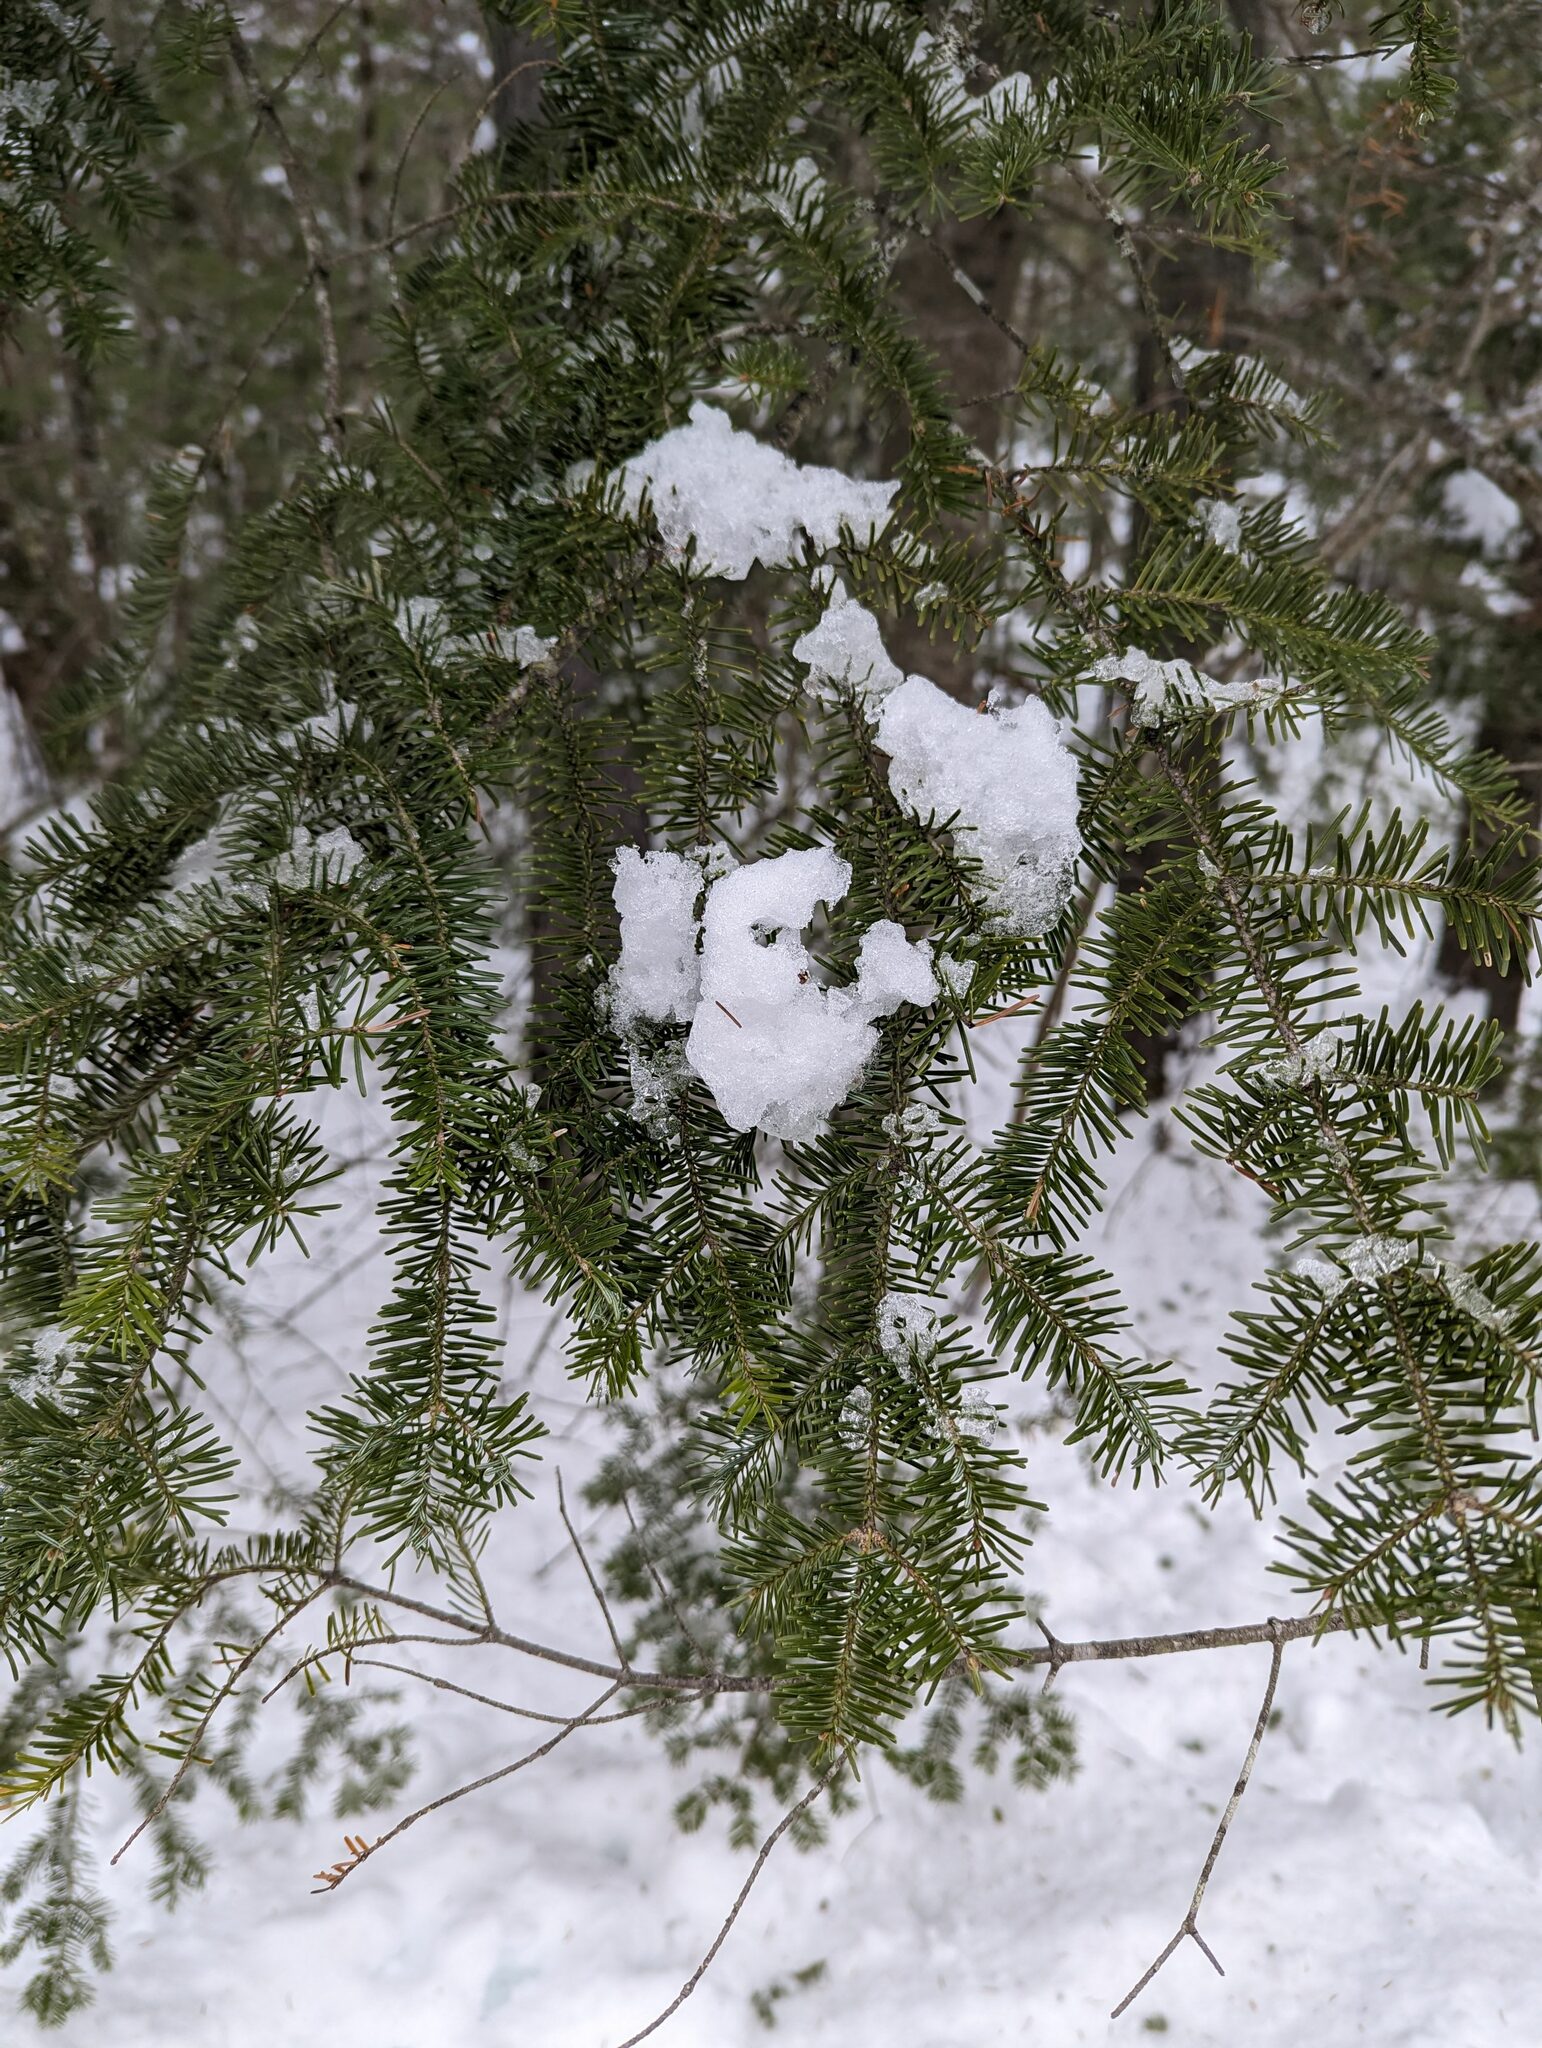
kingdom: Plantae
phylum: Tracheophyta
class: Pinopsida
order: Pinales
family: Pinaceae
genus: Abies
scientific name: Abies balsamea
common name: Balsam fir
